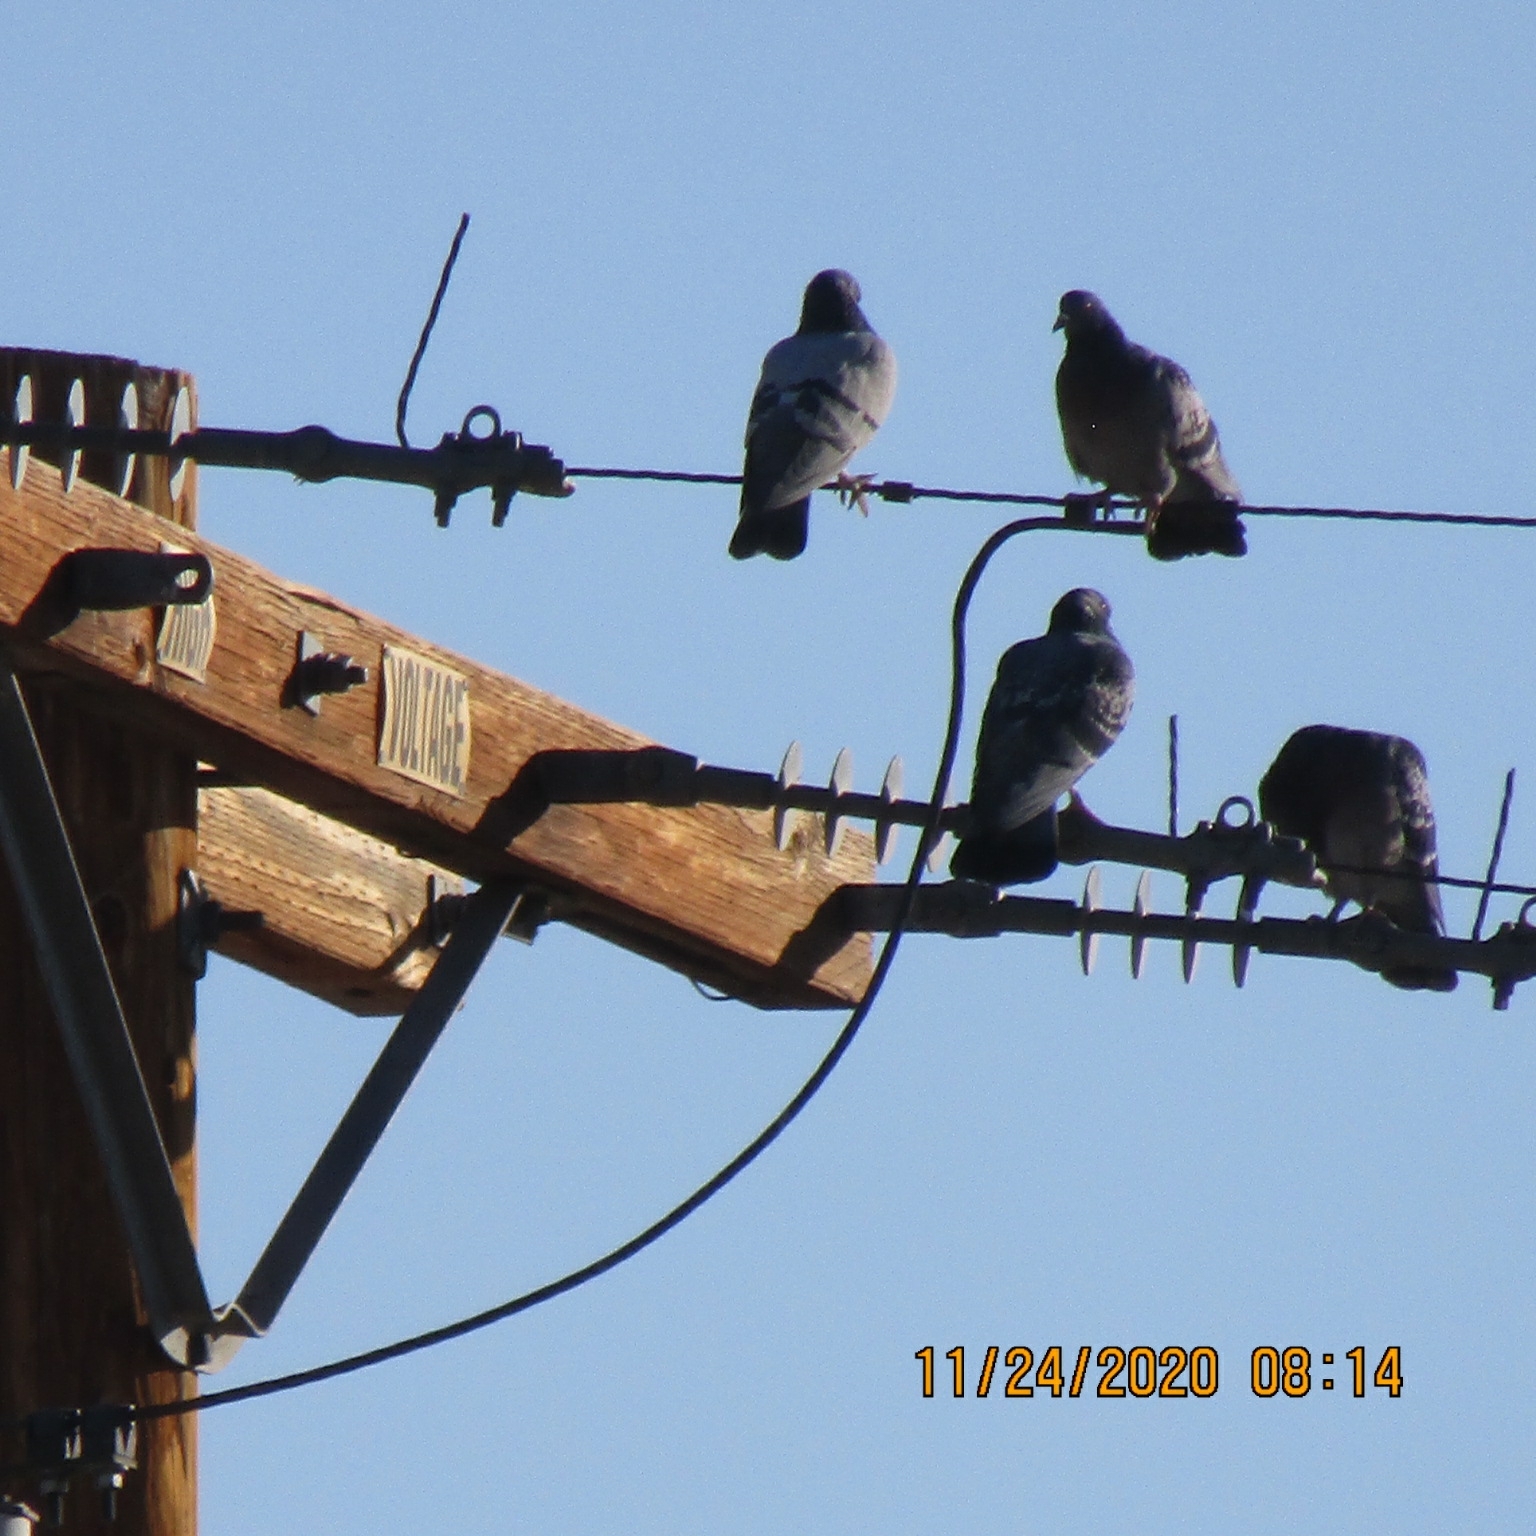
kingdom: Animalia
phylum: Chordata
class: Aves
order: Columbiformes
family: Columbidae
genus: Columba
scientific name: Columba livia
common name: Rock pigeon
